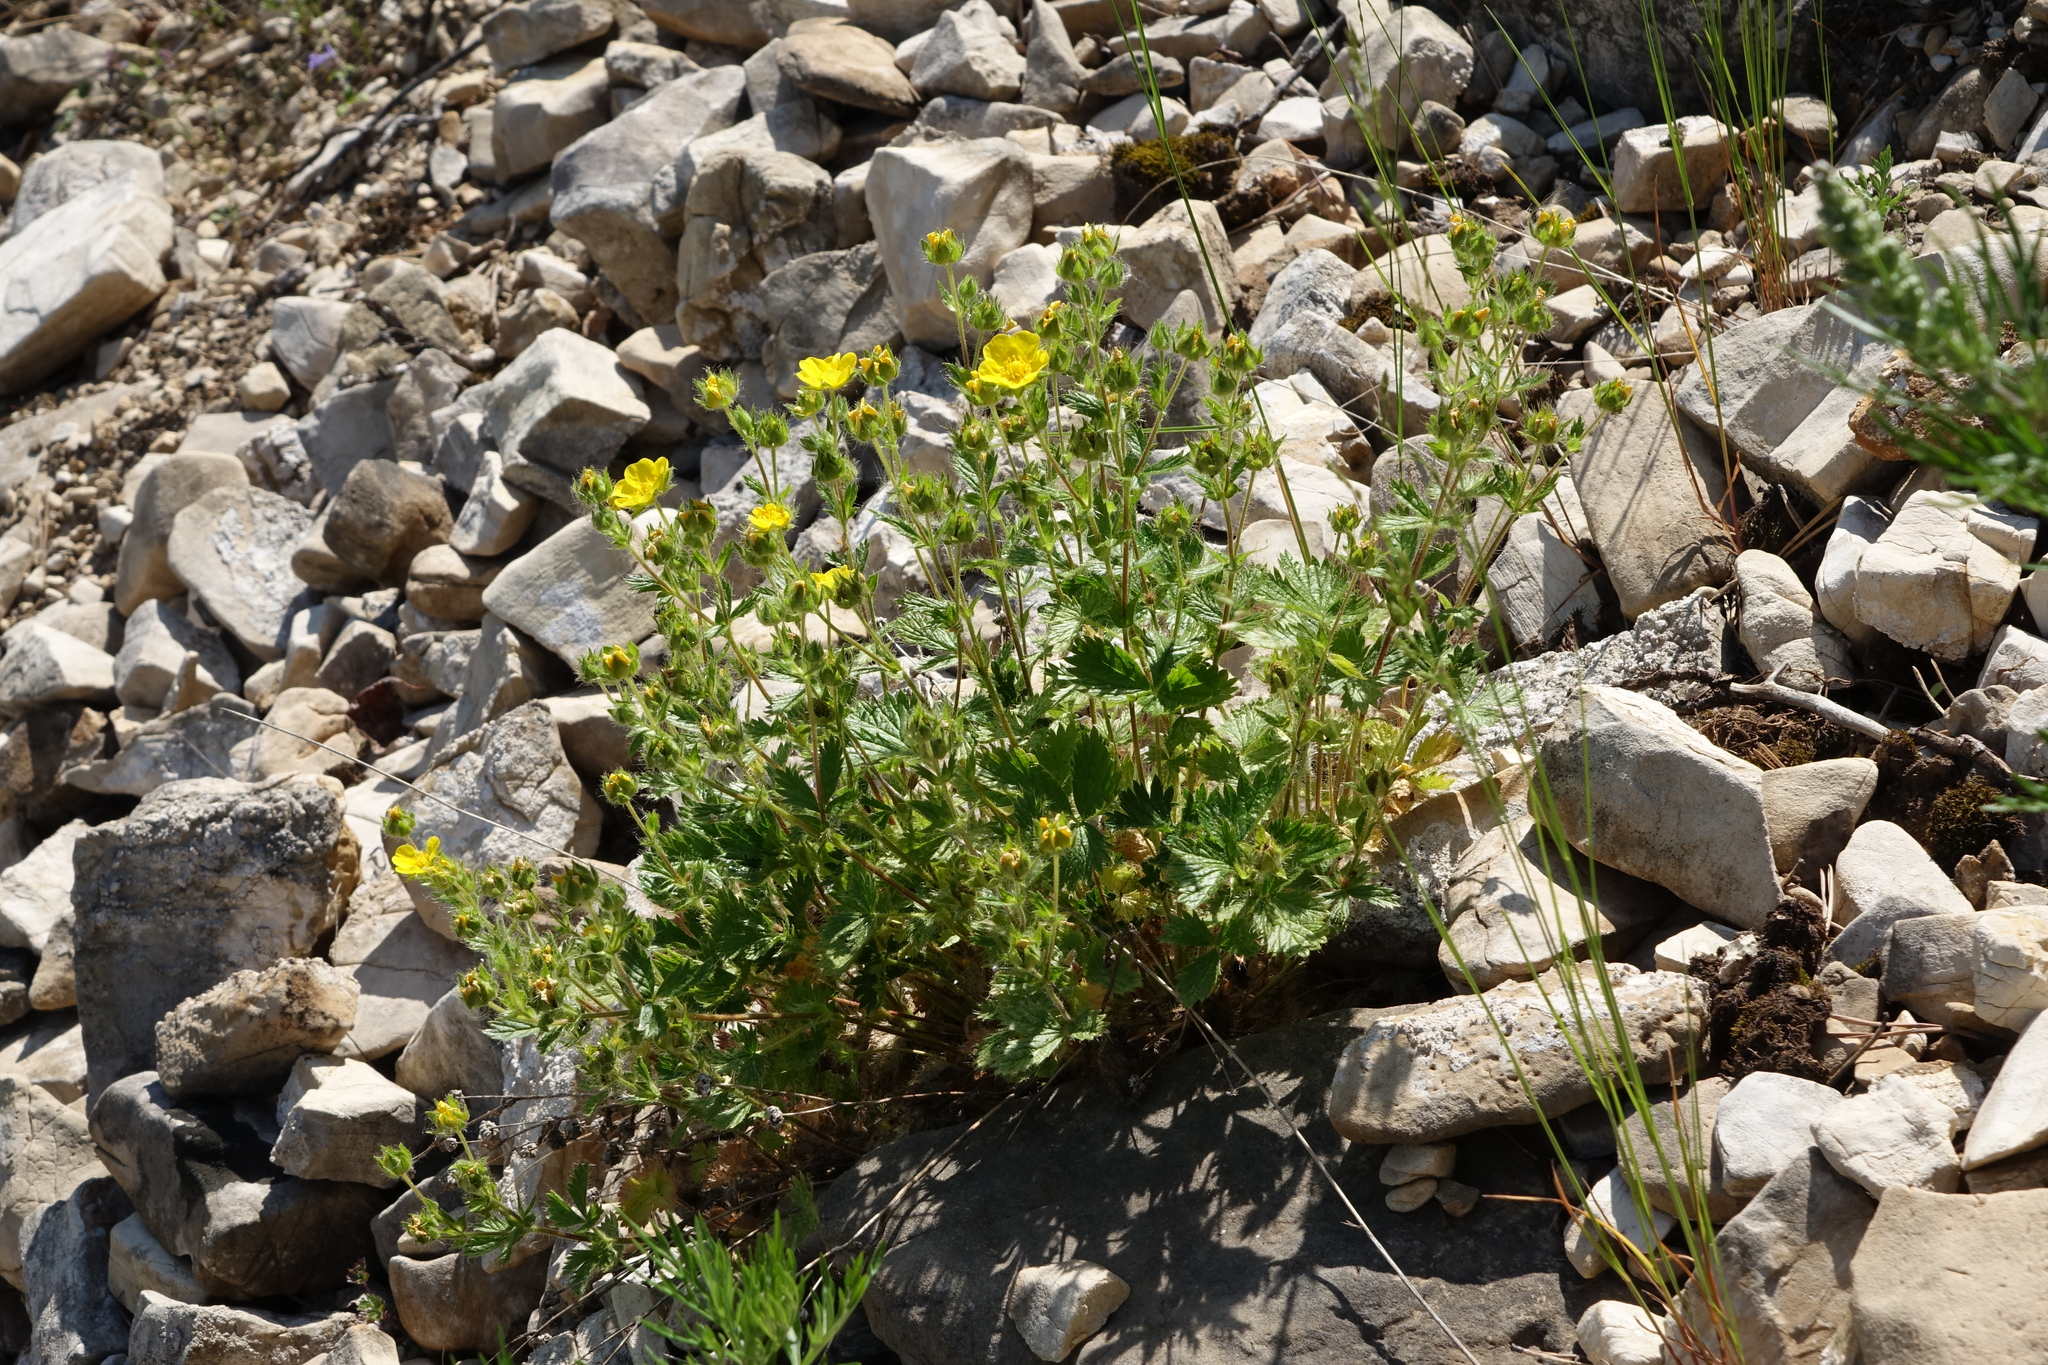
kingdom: Plantae
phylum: Tracheophyta
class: Magnoliopsida
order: Rosales
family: Rosaceae
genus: Potentilla
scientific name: Potentilla asperrima
